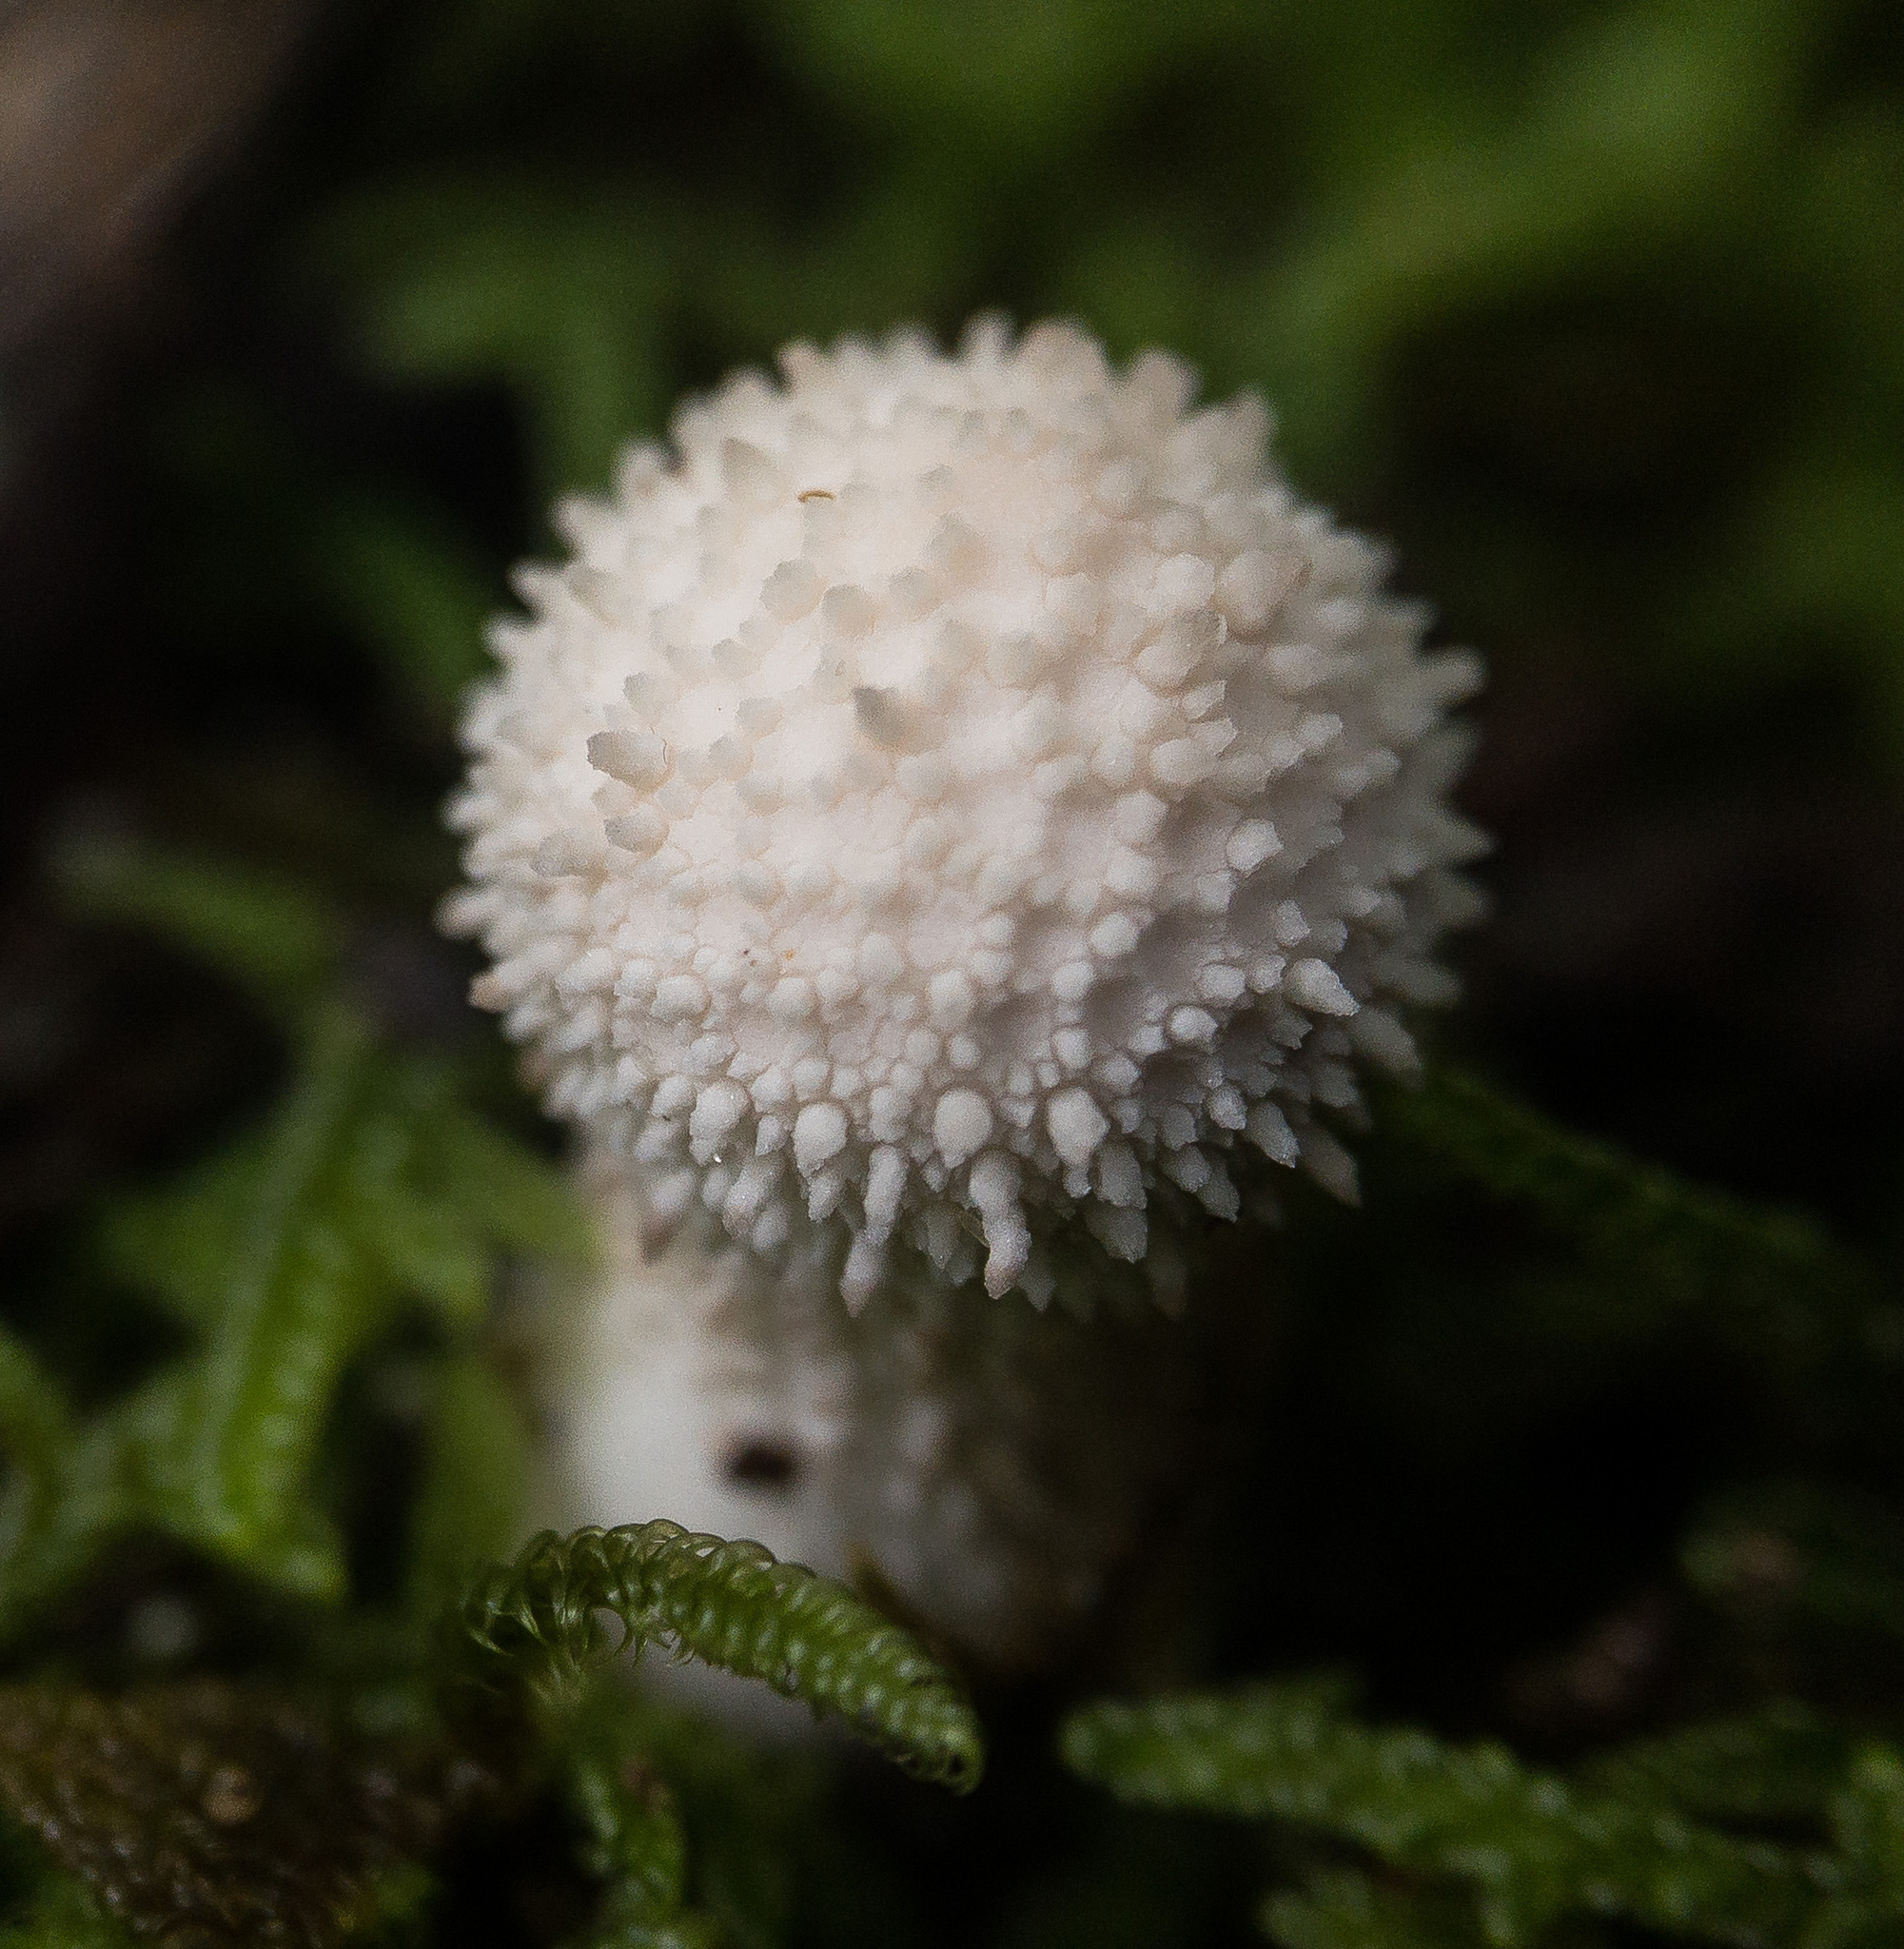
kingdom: Fungi
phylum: Basidiomycota
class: Agaricomycetes
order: Agaricales
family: Lycoperdaceae
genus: Lycoperdon
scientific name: Lycoperdon perlatum
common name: Common puffball
